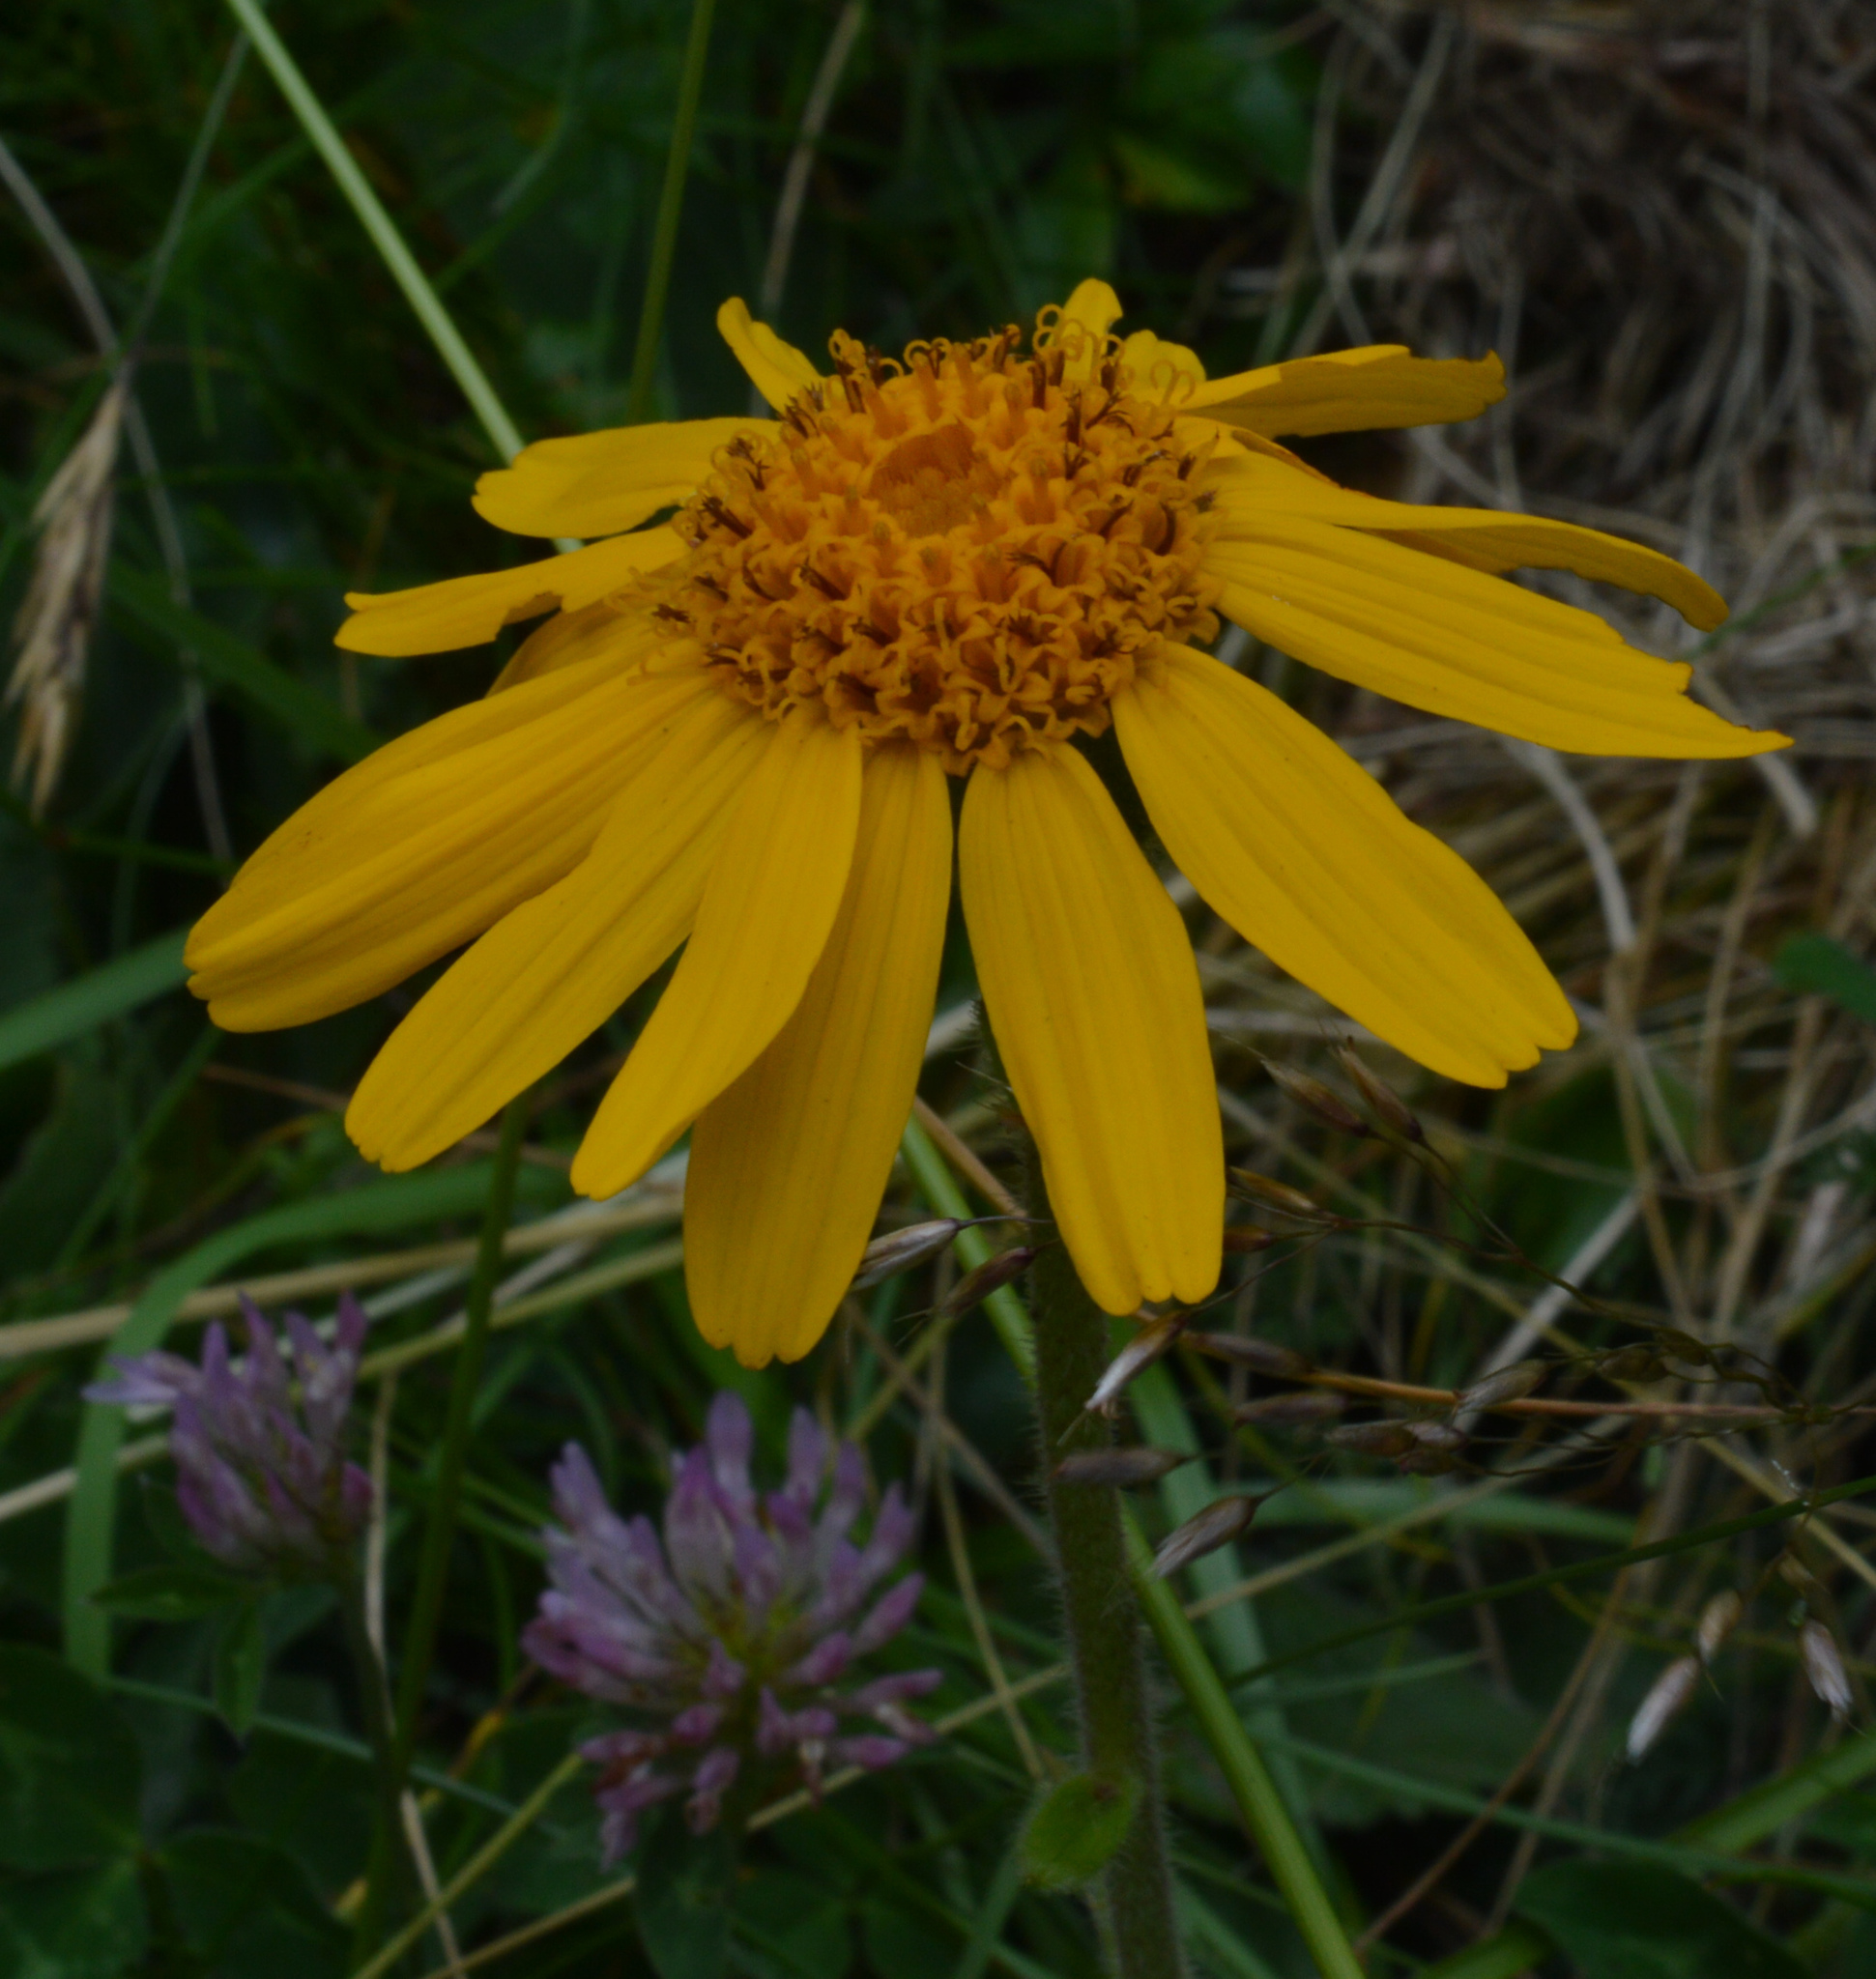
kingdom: Plantae
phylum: Tracheophyta
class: Magnoliopsida
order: Asterales
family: Asteraceae
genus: Arnica
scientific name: Arnica montana
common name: Leopard's bane
